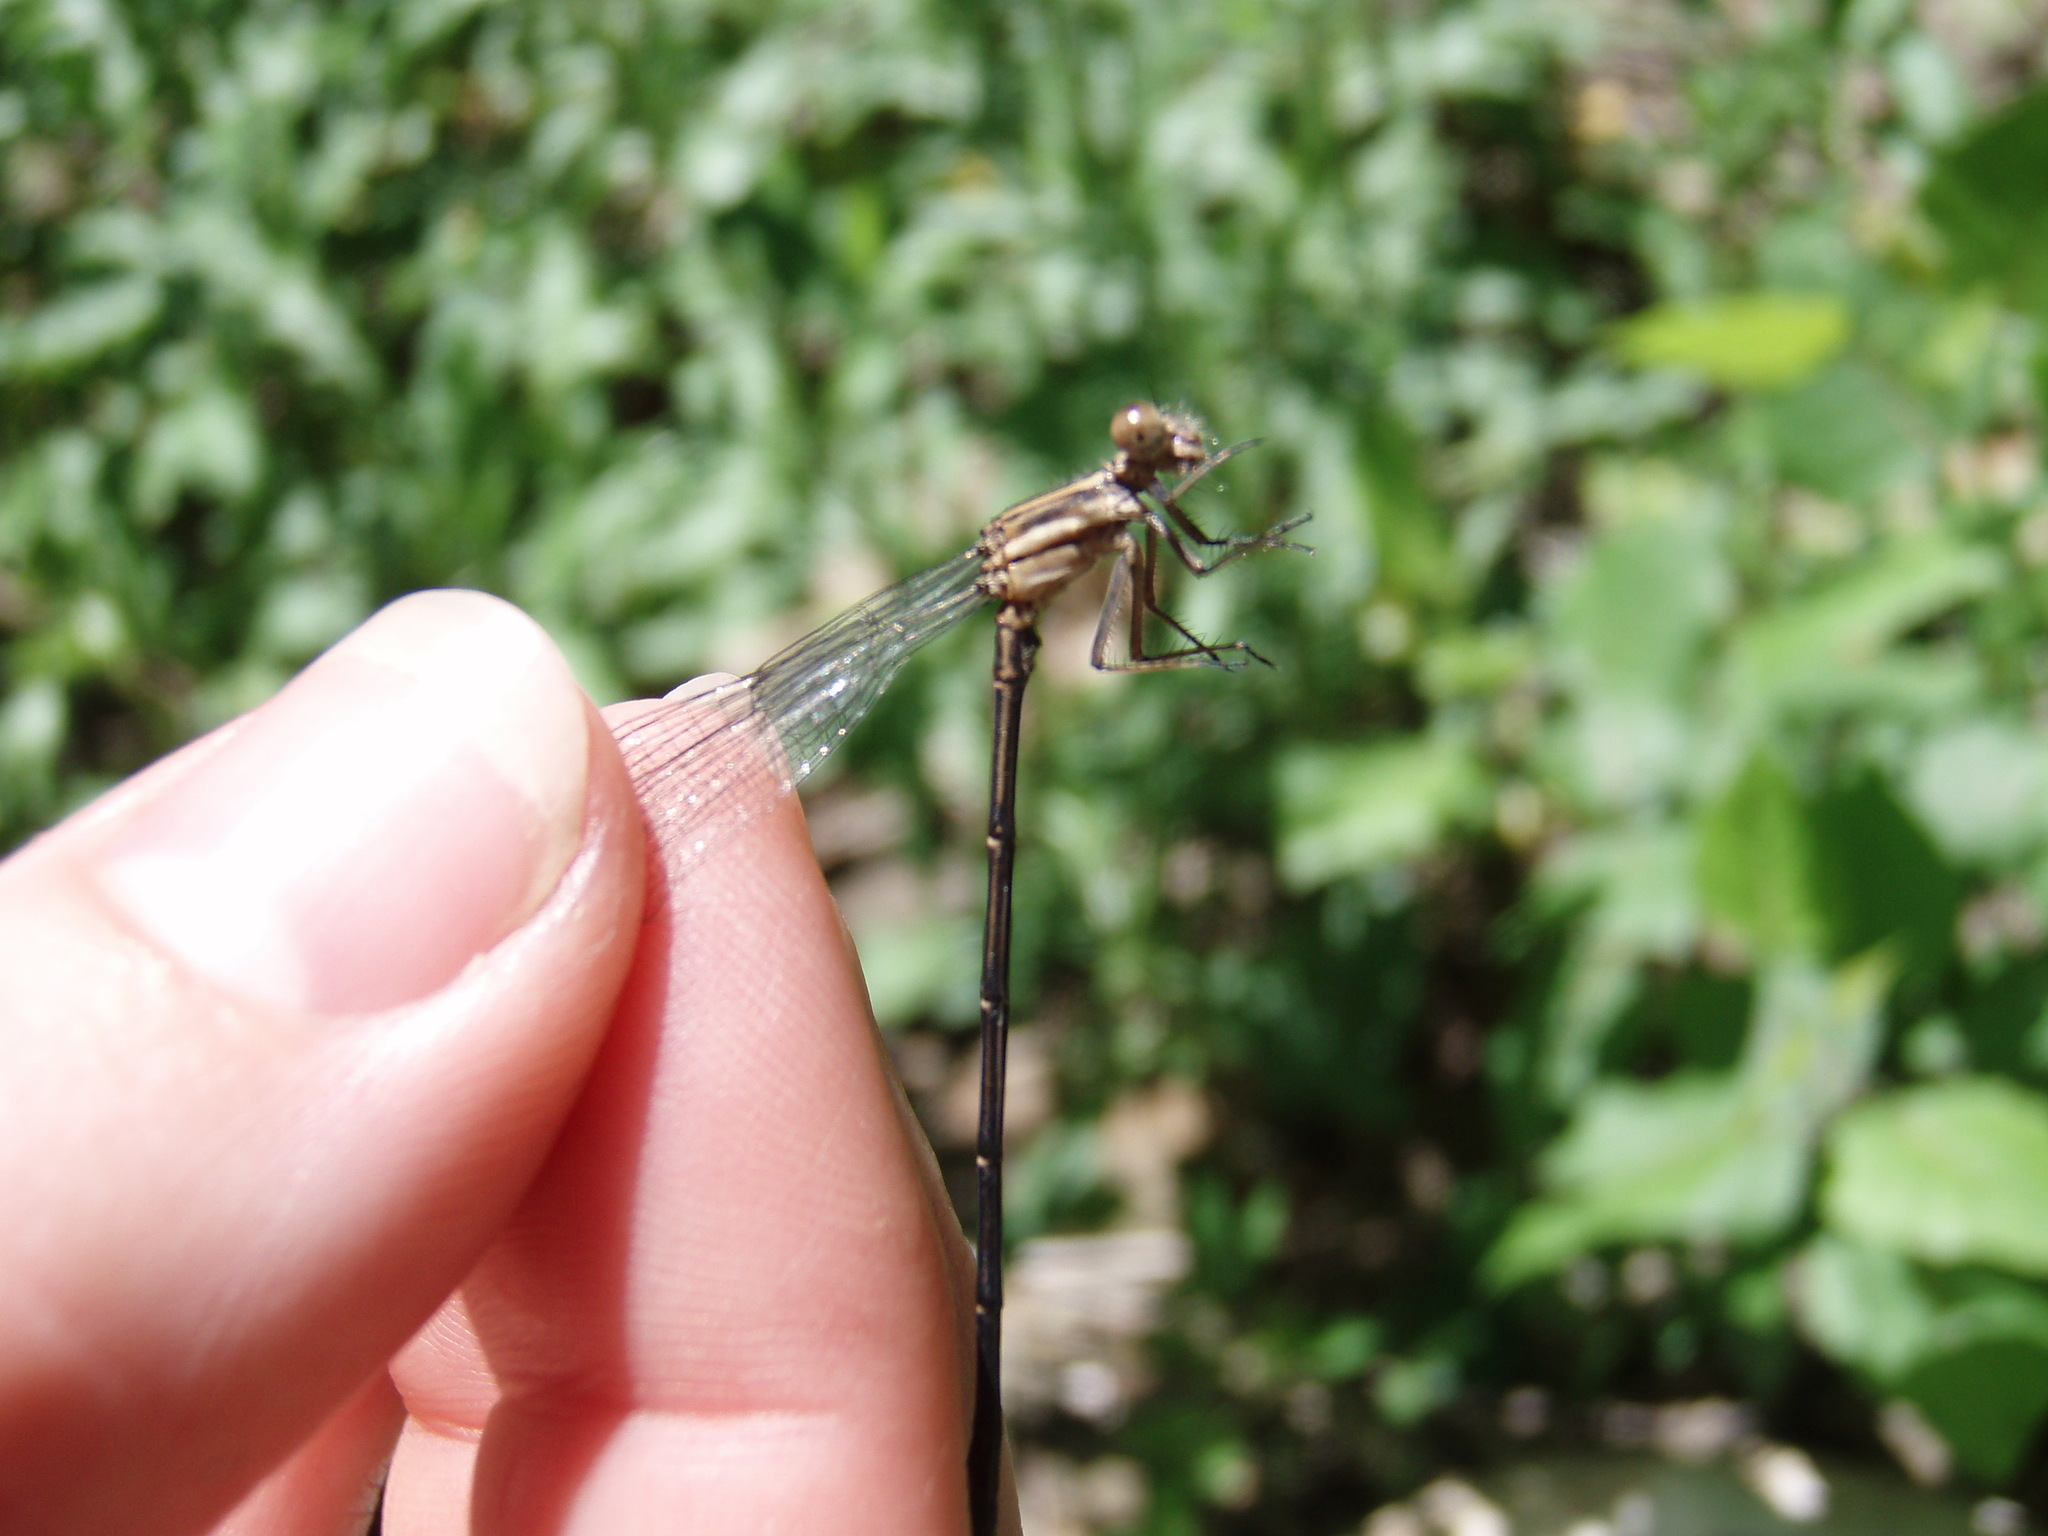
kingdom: Animalia
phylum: Arthropoda
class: Insecta
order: Odonata
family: Coenagrionidae
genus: Argia
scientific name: Argia translata
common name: Dusky dancer
